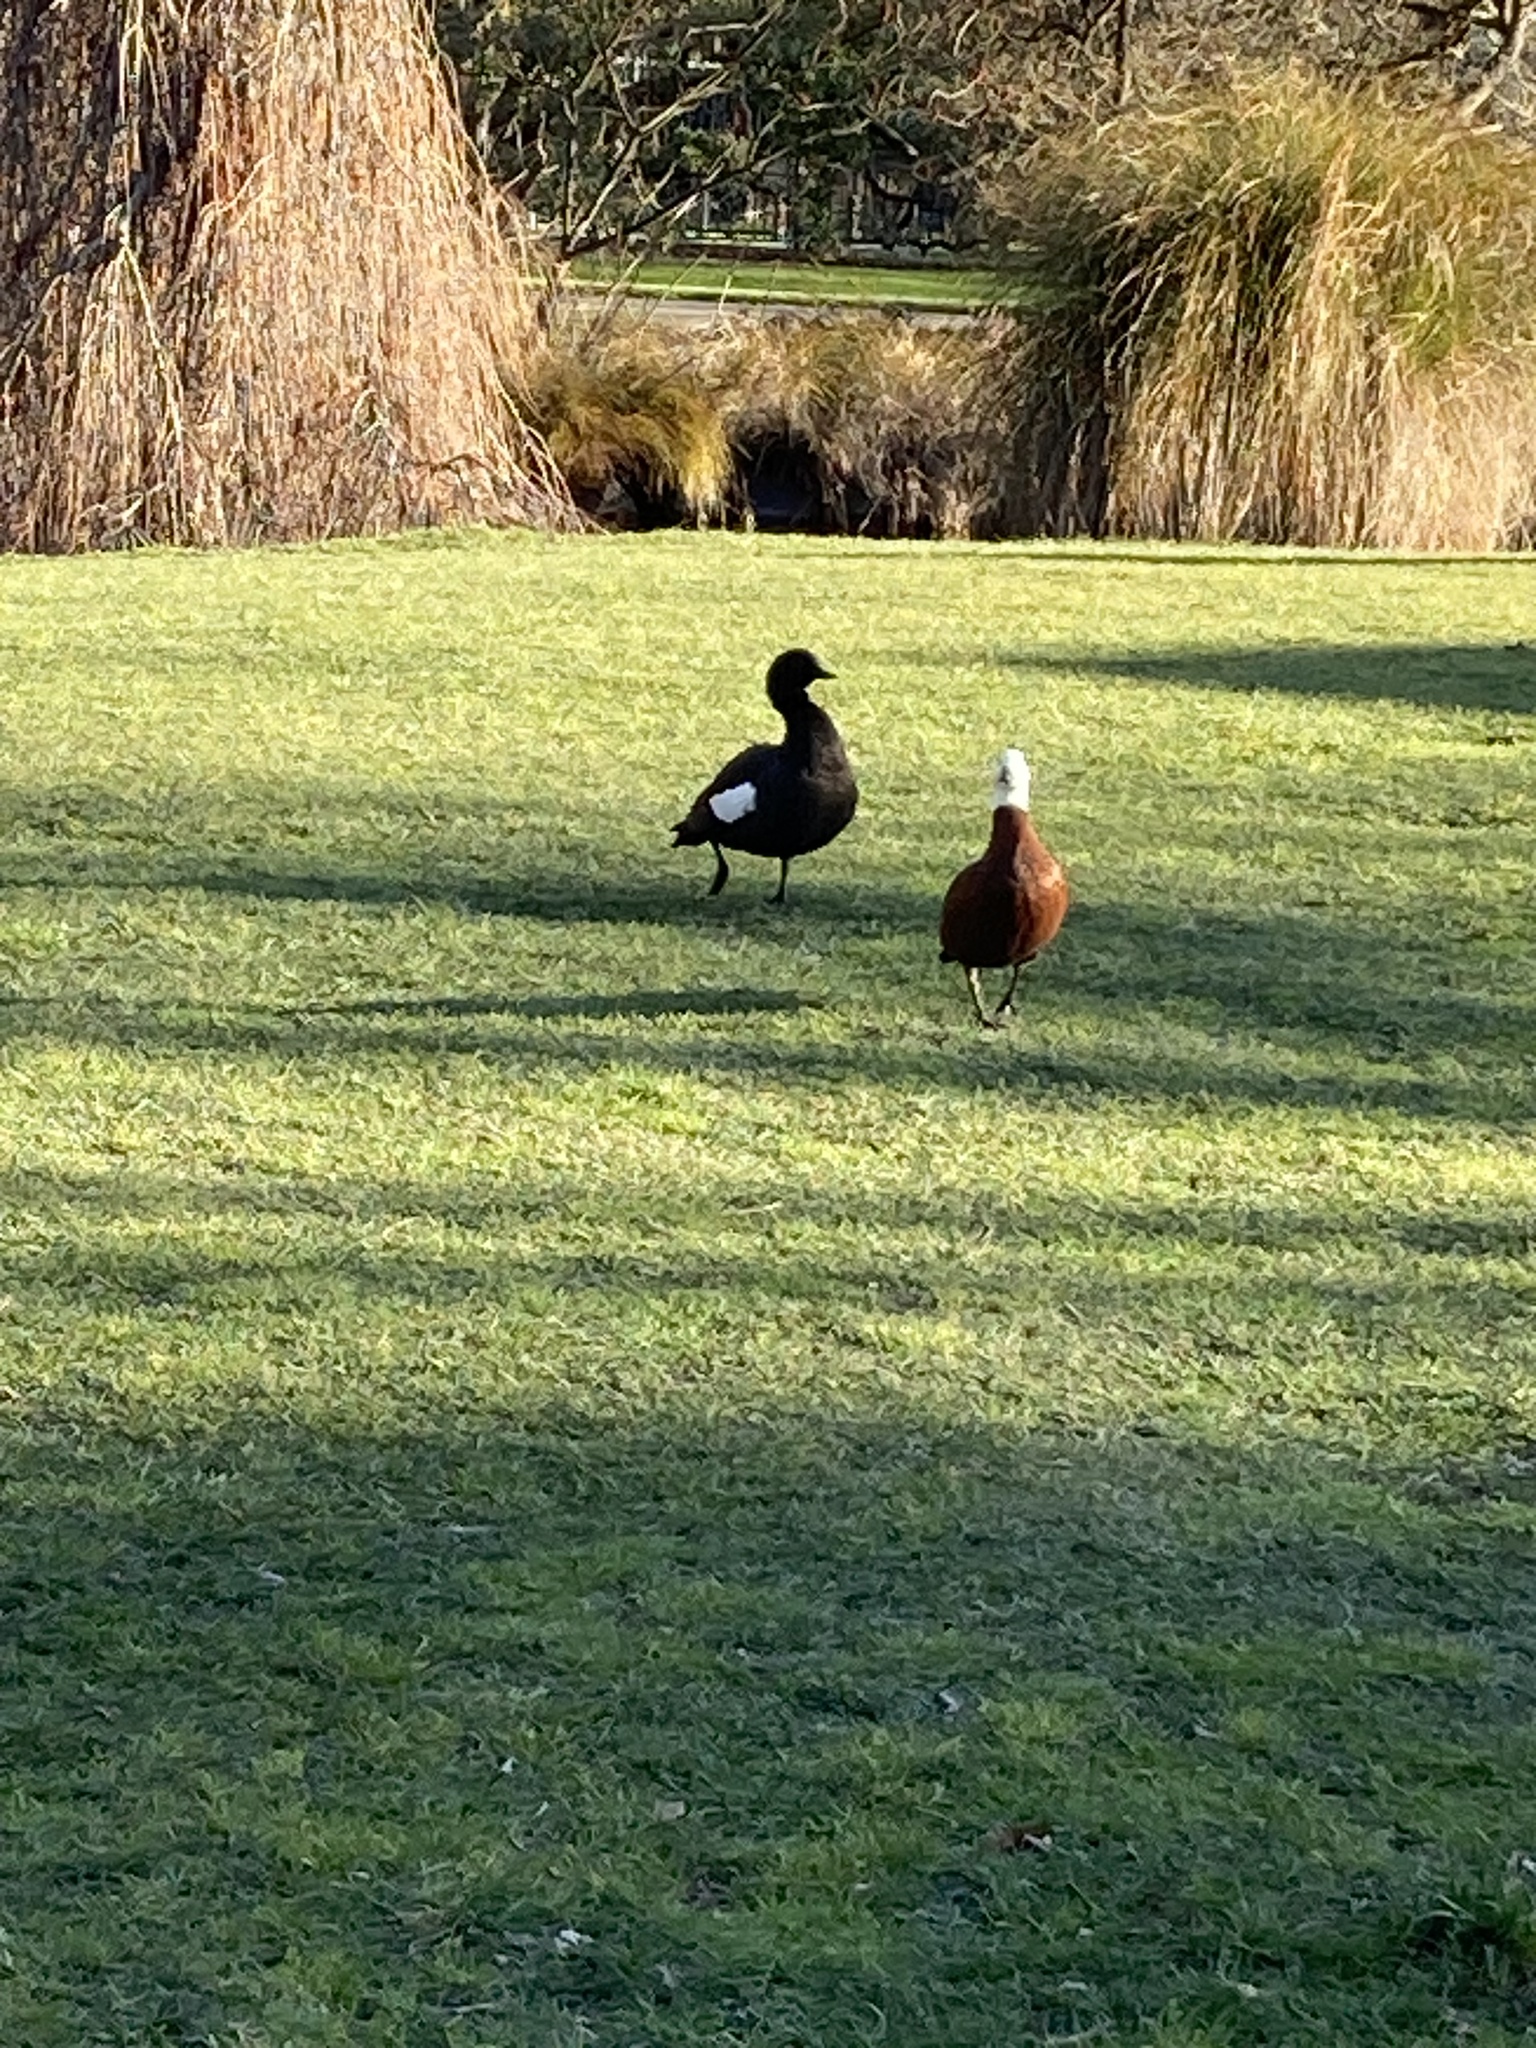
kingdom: Animalia
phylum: Chordata
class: Aves
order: Anseriformes
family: Anatidae
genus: Tadorna
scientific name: Tadorna variegata
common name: Paradise shelduck
